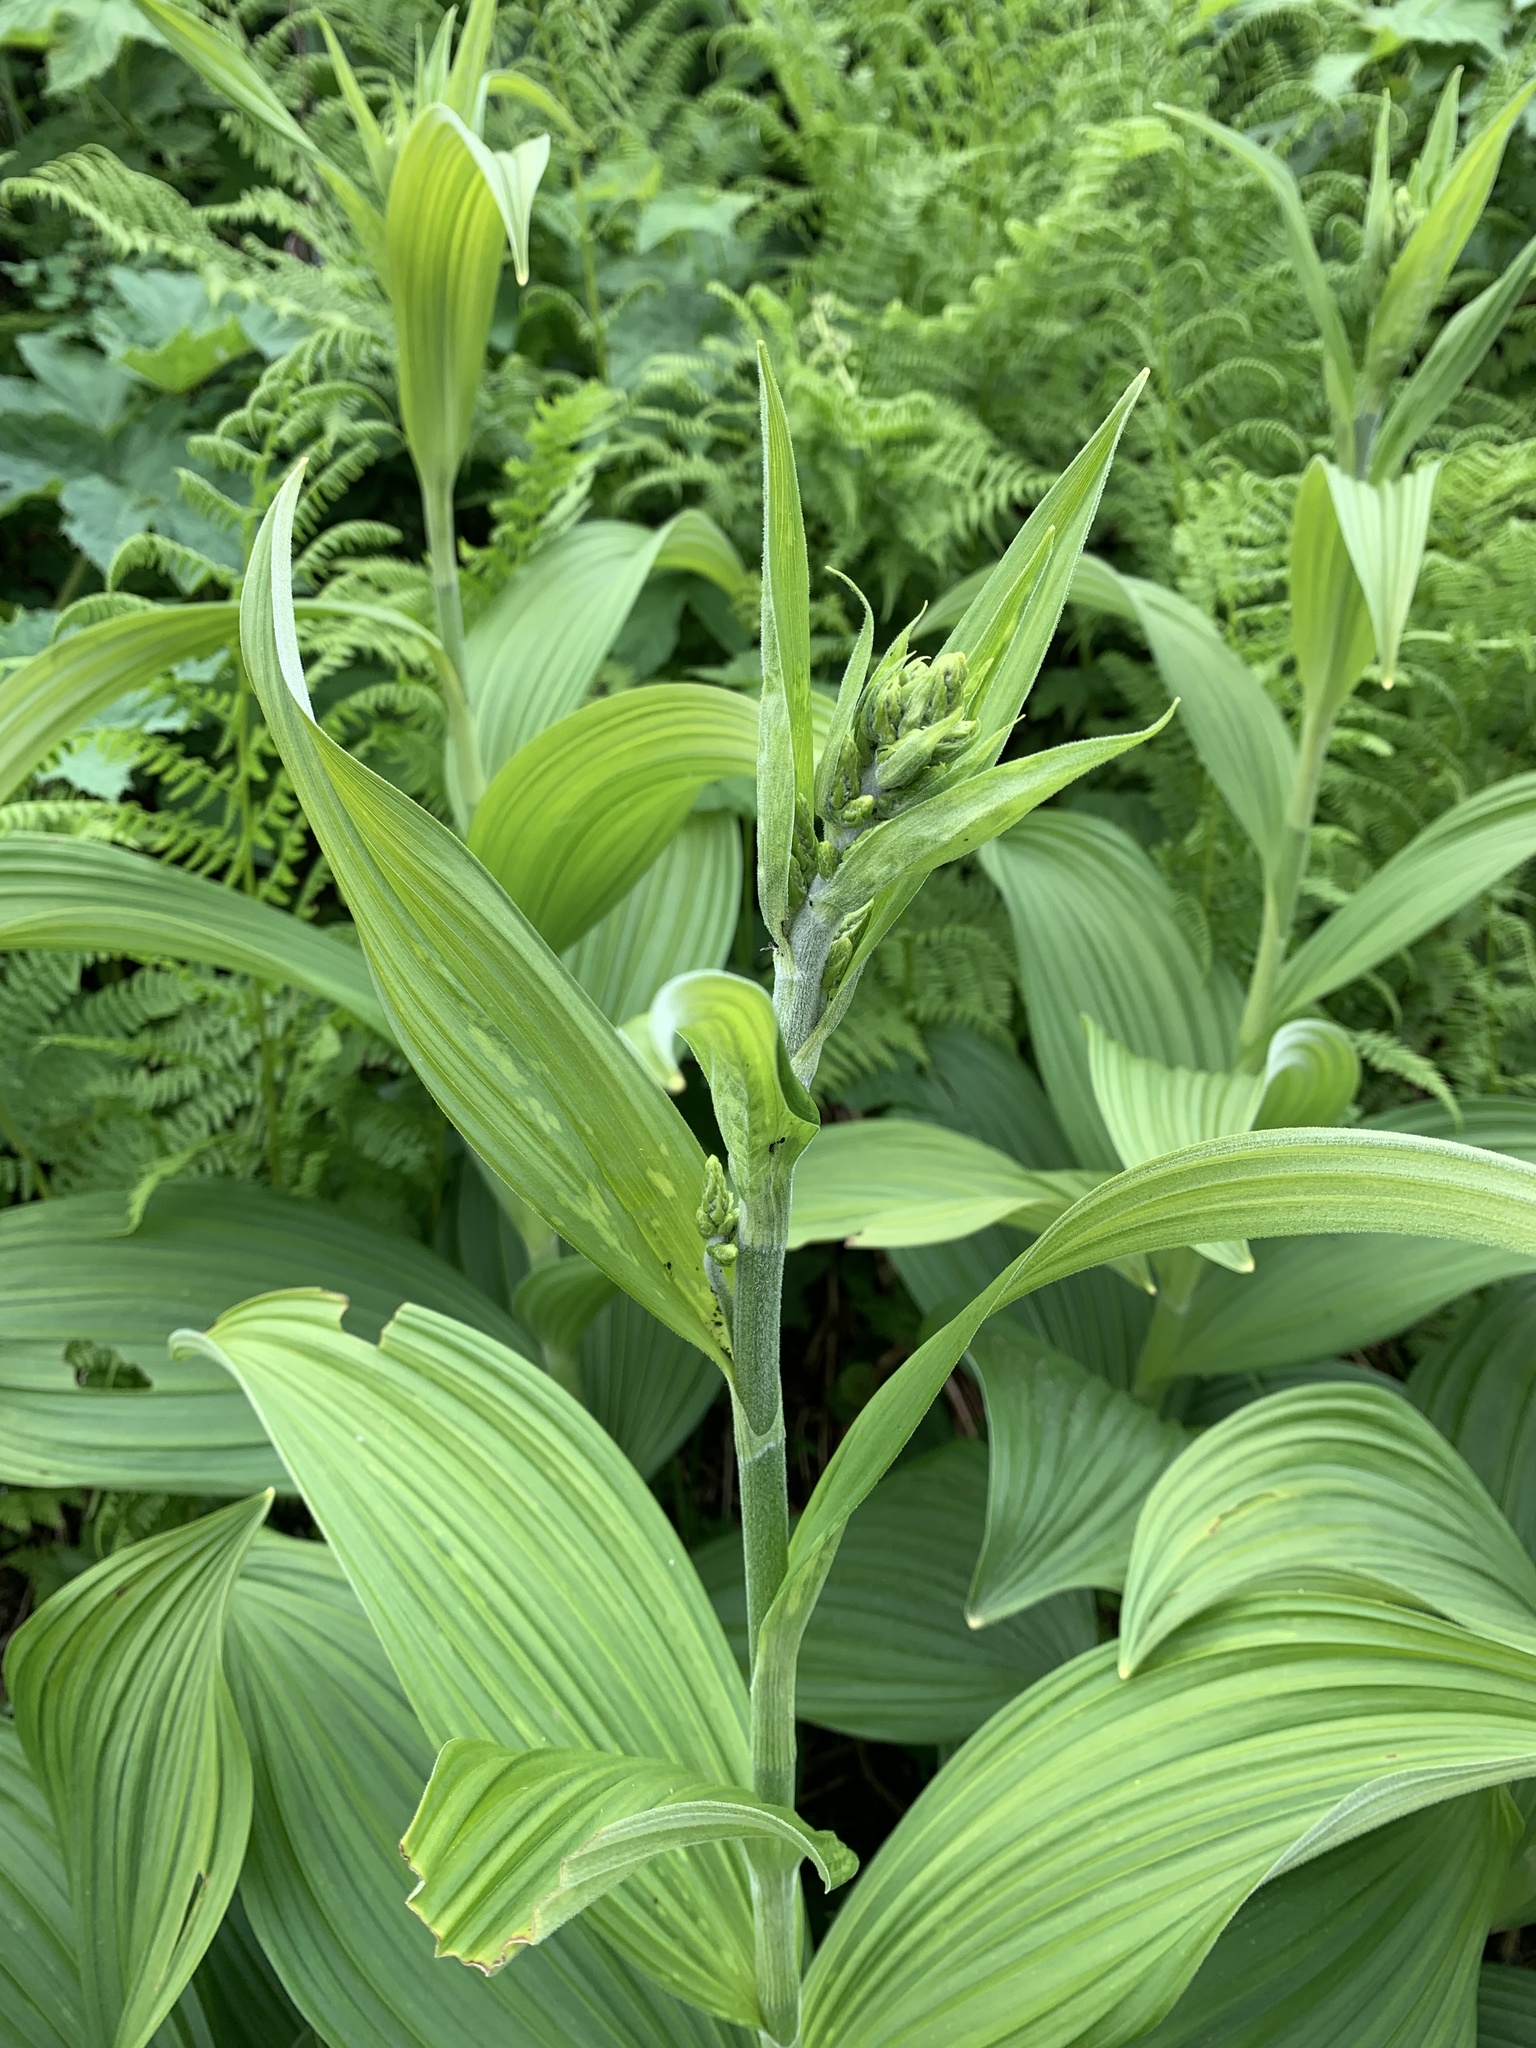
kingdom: Plantae
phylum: Tracheophyta
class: Liliopsida
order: Liliales
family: Melanthiaceae
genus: Veratrum
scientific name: Veratrum viride
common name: American false hellebore
